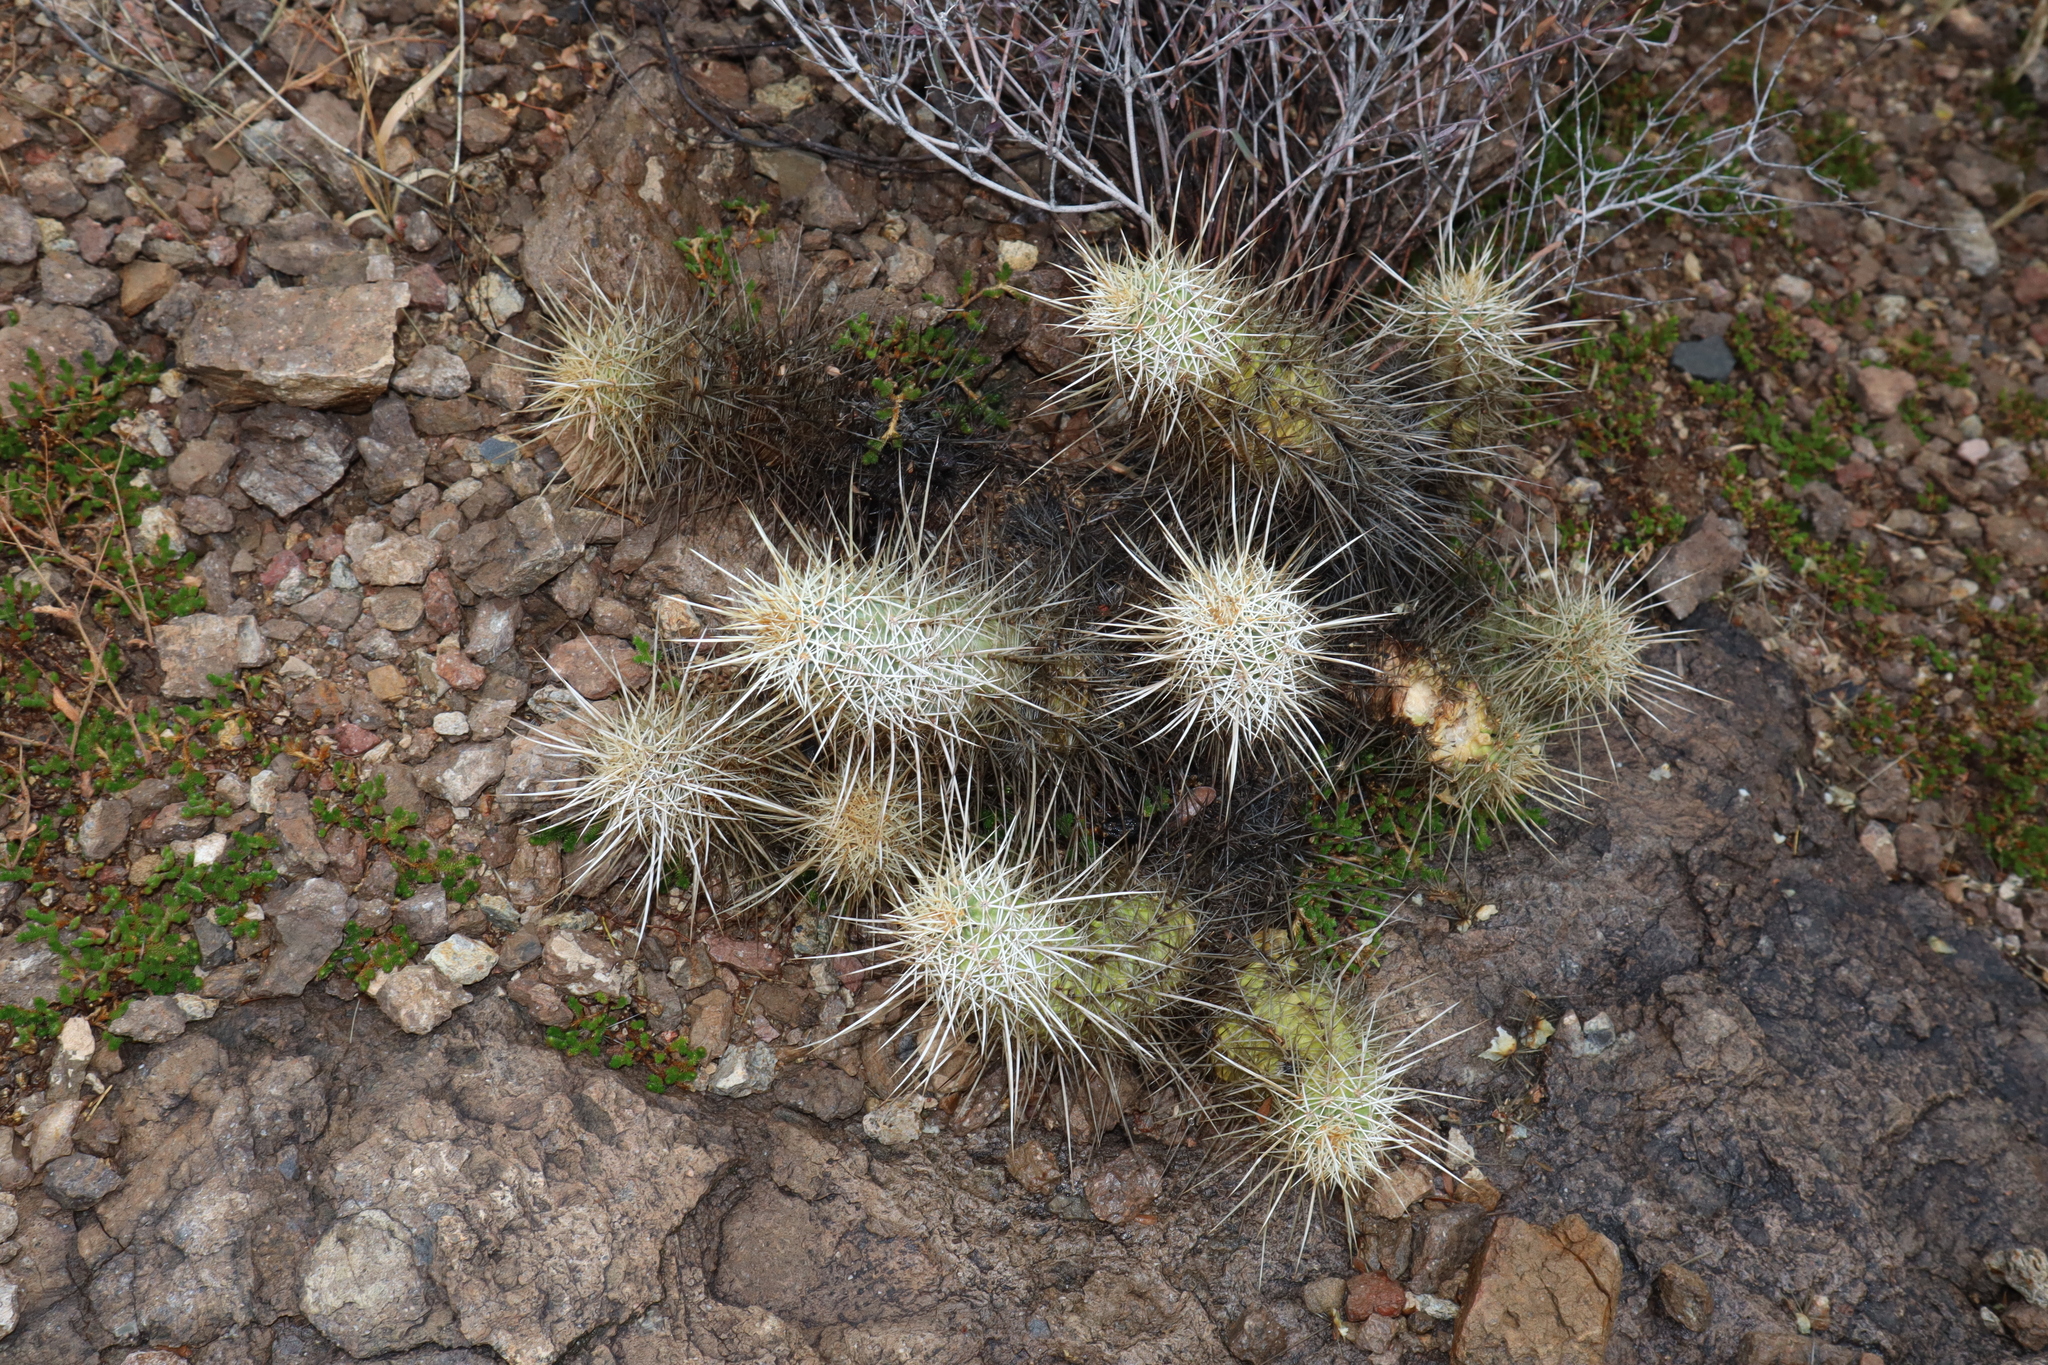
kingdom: Plantae
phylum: Tracheophyta
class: Magnoliopsida
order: Caryophyllales
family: Cactaceae
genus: Echinocereus
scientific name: Echinocereus engelmannii
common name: Engelmann's hedgehog cactus
